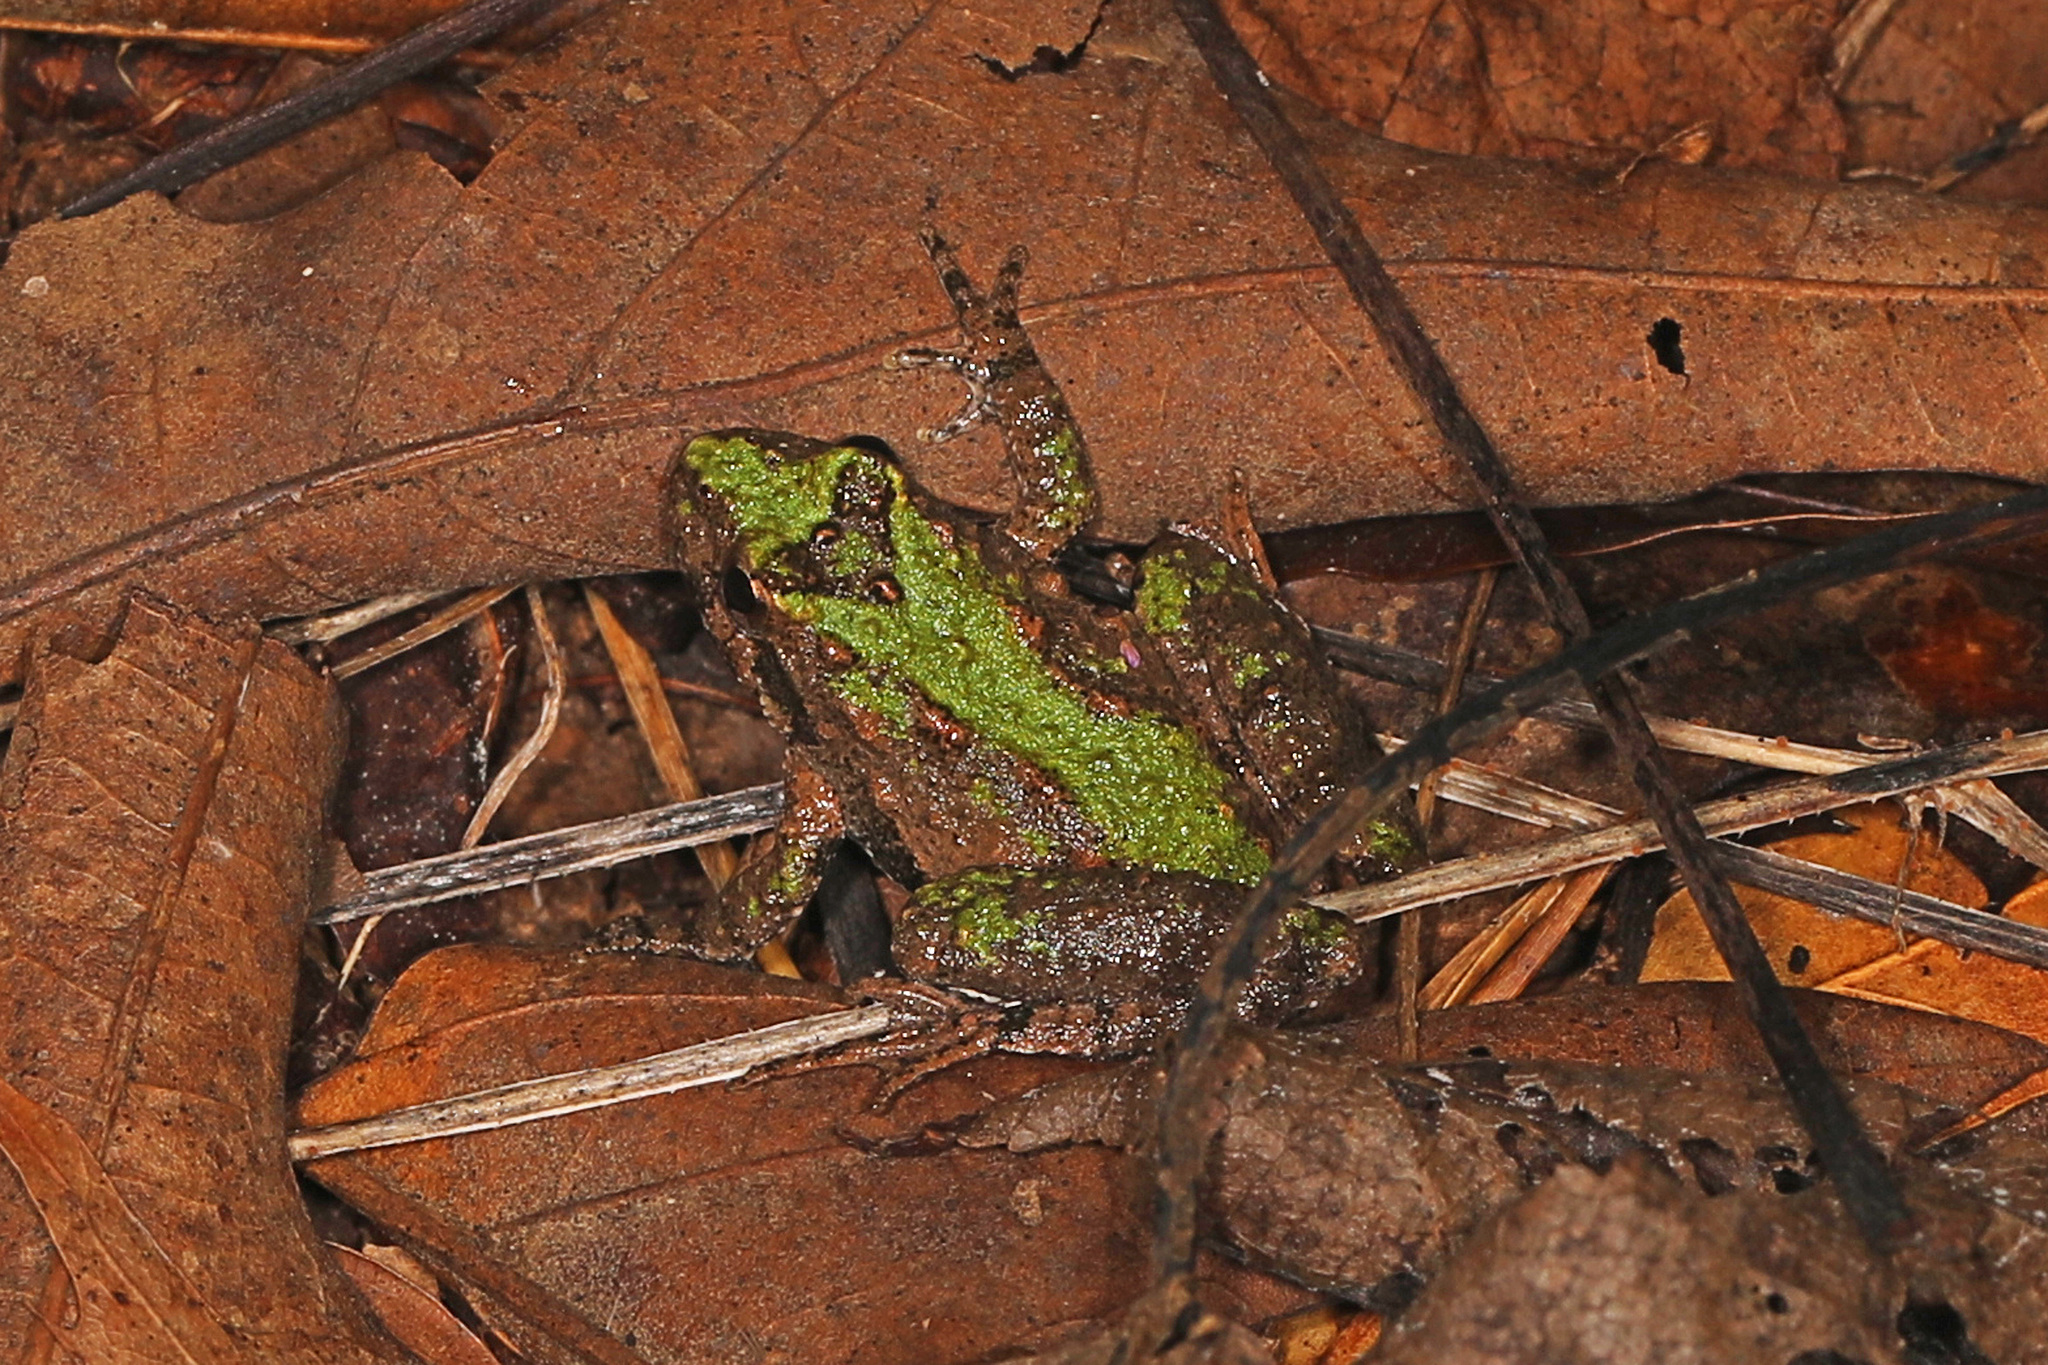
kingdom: Animalia
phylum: Chordata
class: Amphibia
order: Anura
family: Hylidae
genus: Acris
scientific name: Acris crepitans
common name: Northern cricket frog
